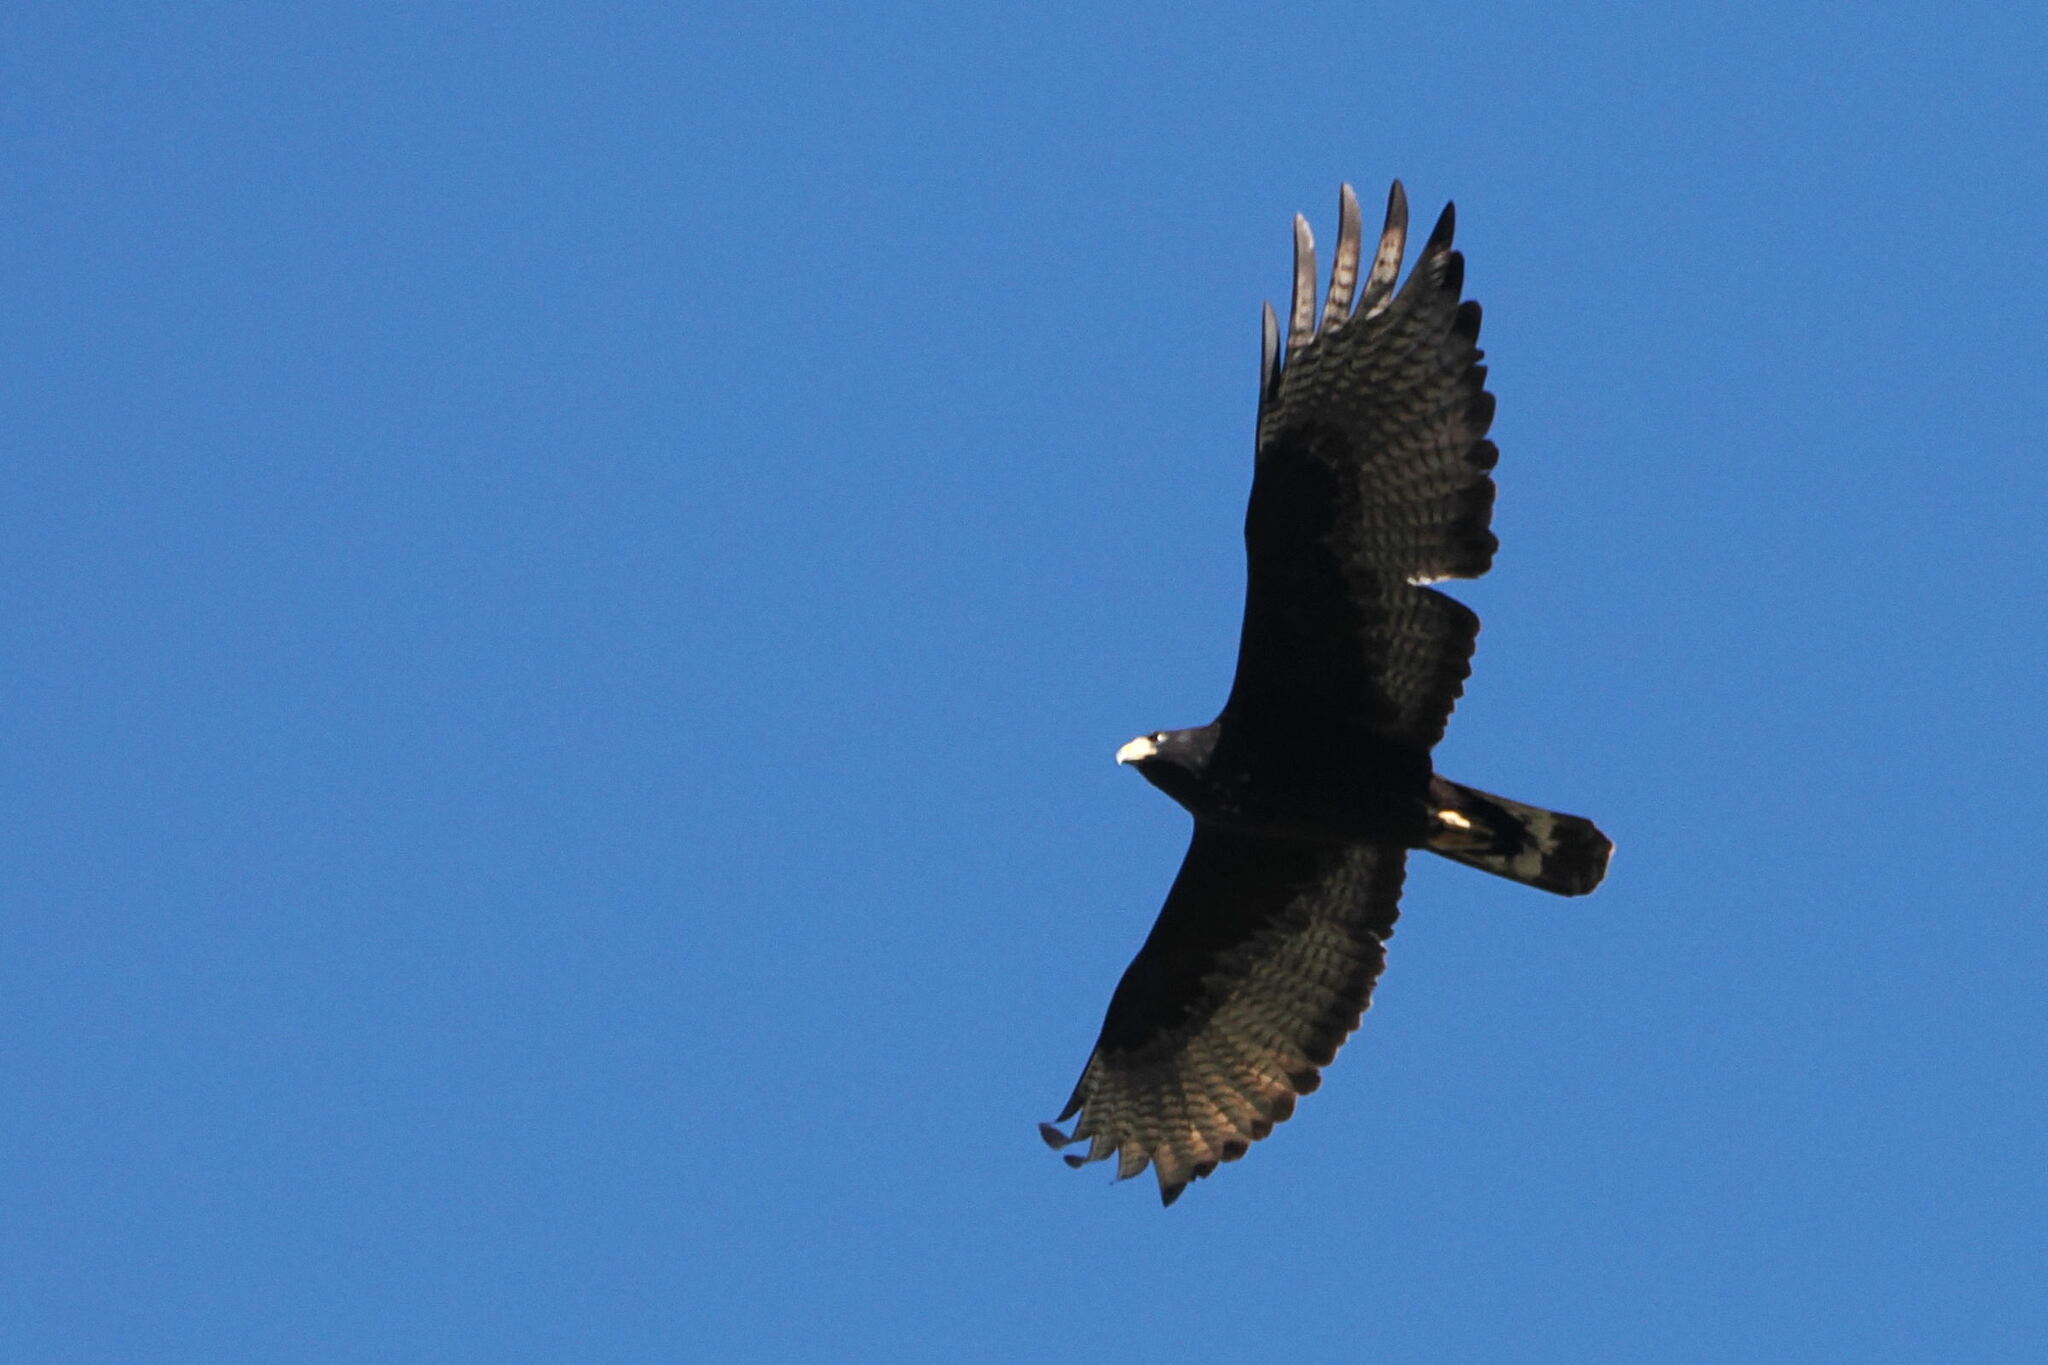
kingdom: Animalia
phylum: Chordata
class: Aves
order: Accipitriformes
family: Accipitridae
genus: Buteo
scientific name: Buteo albonotatus
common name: Zone-tailed hawk
